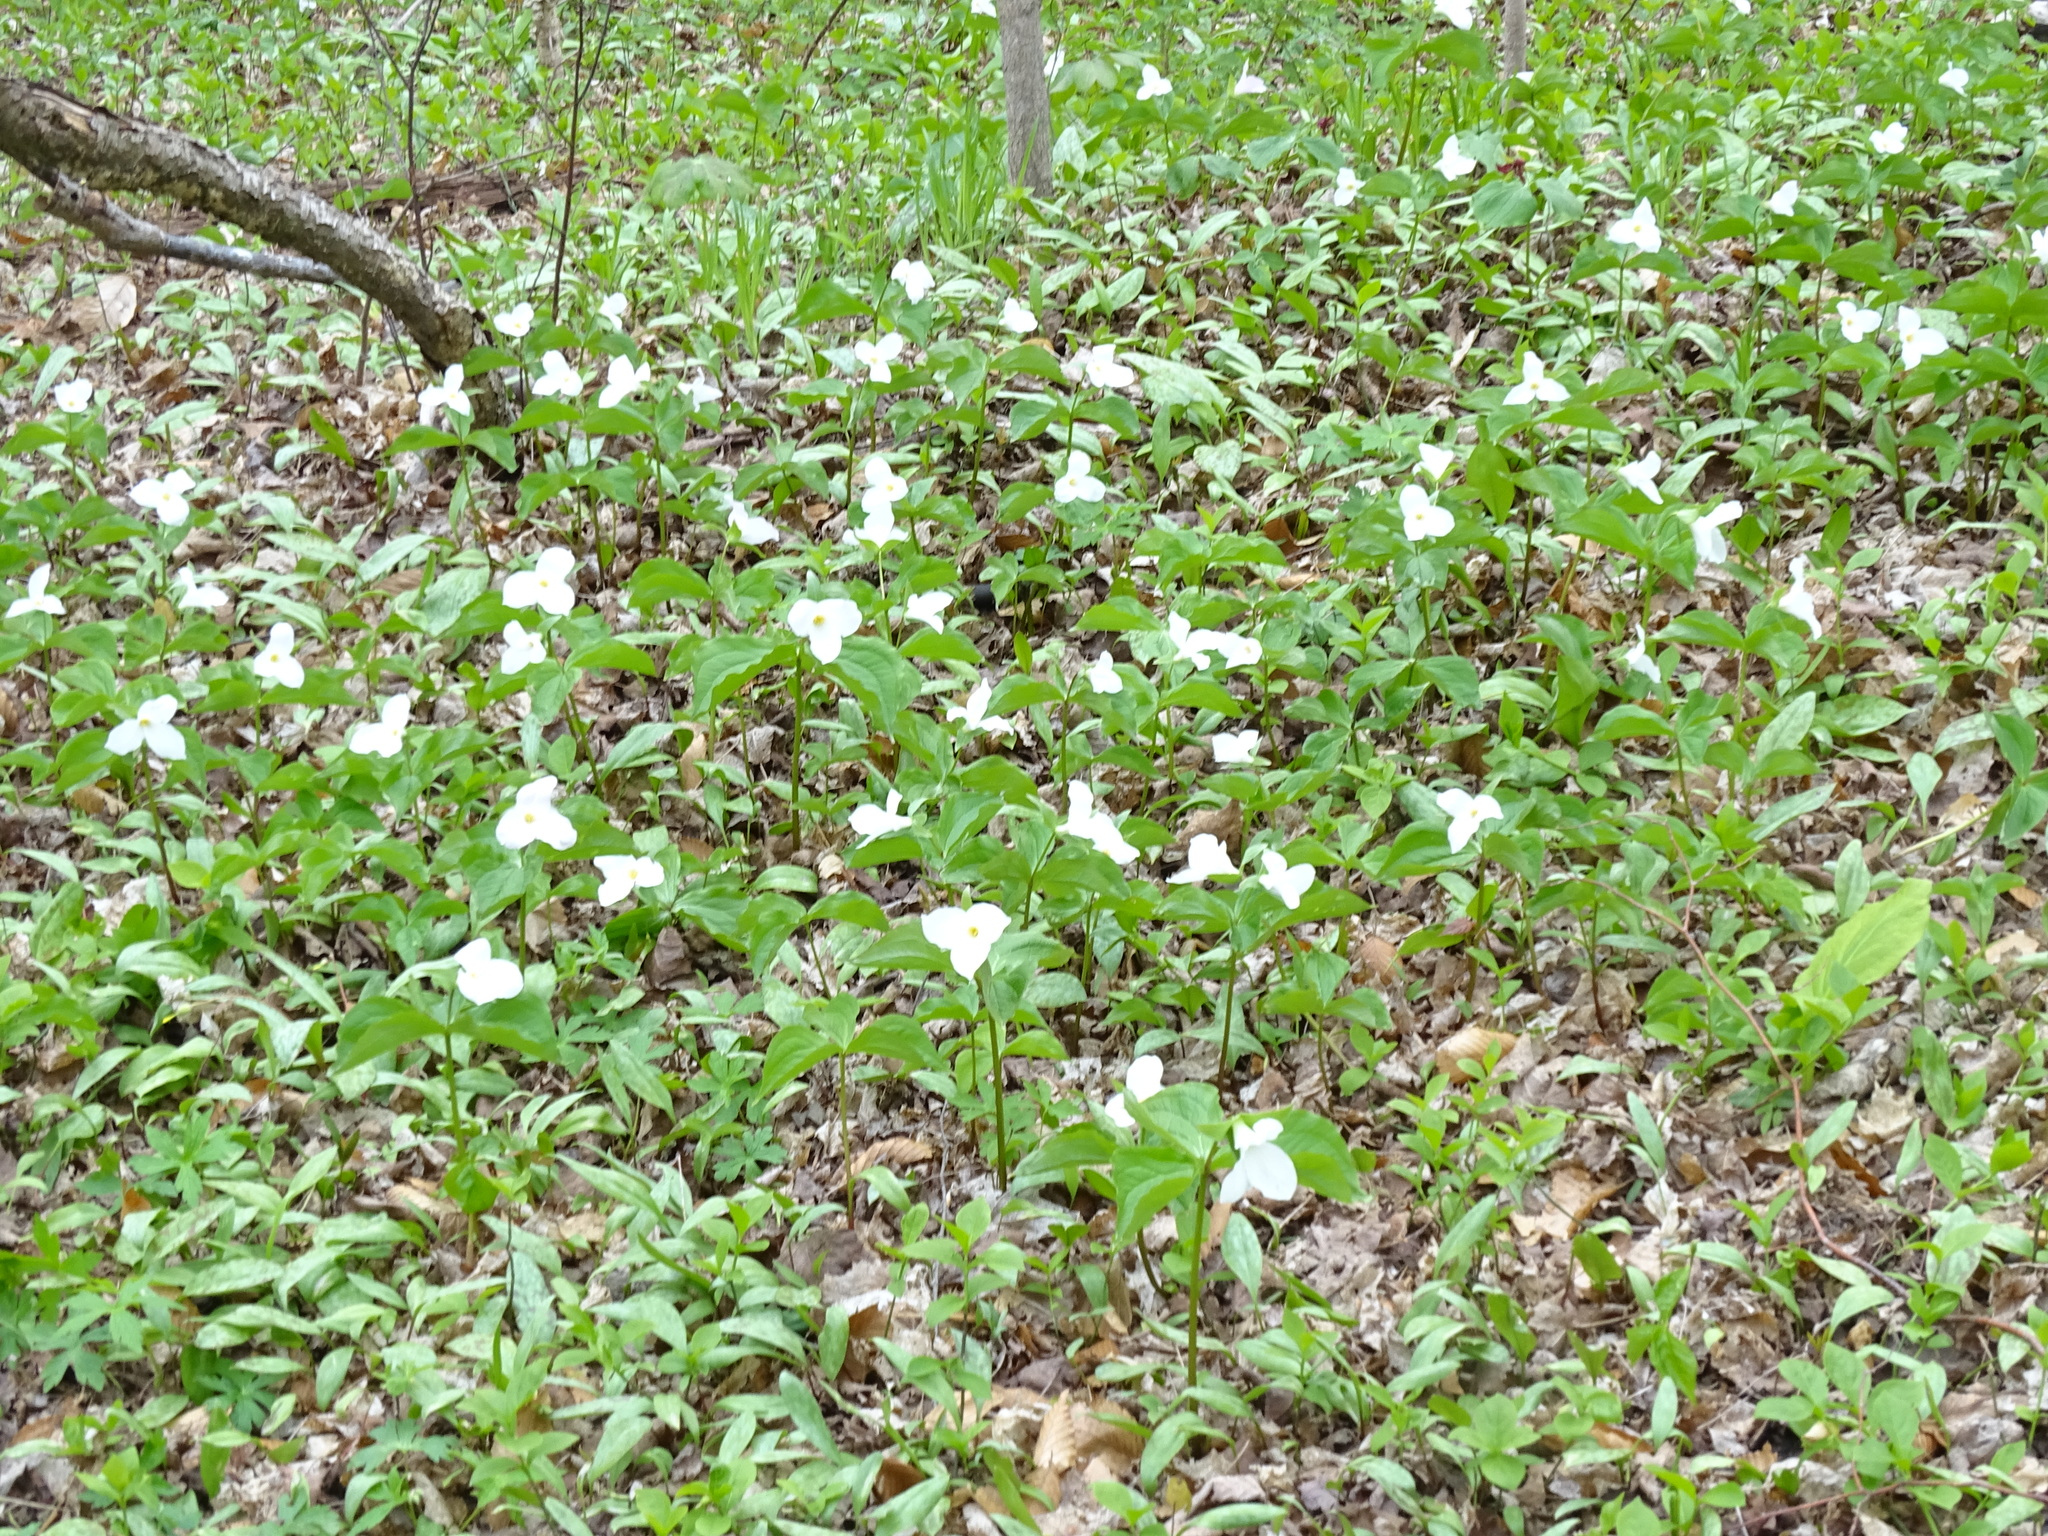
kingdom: Plantae
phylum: Tracheophyta
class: Liliopsida
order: Liliales
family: Melanthiaceae
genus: Trillium
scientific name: Trillium grandiflorum
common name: Great white trillium
